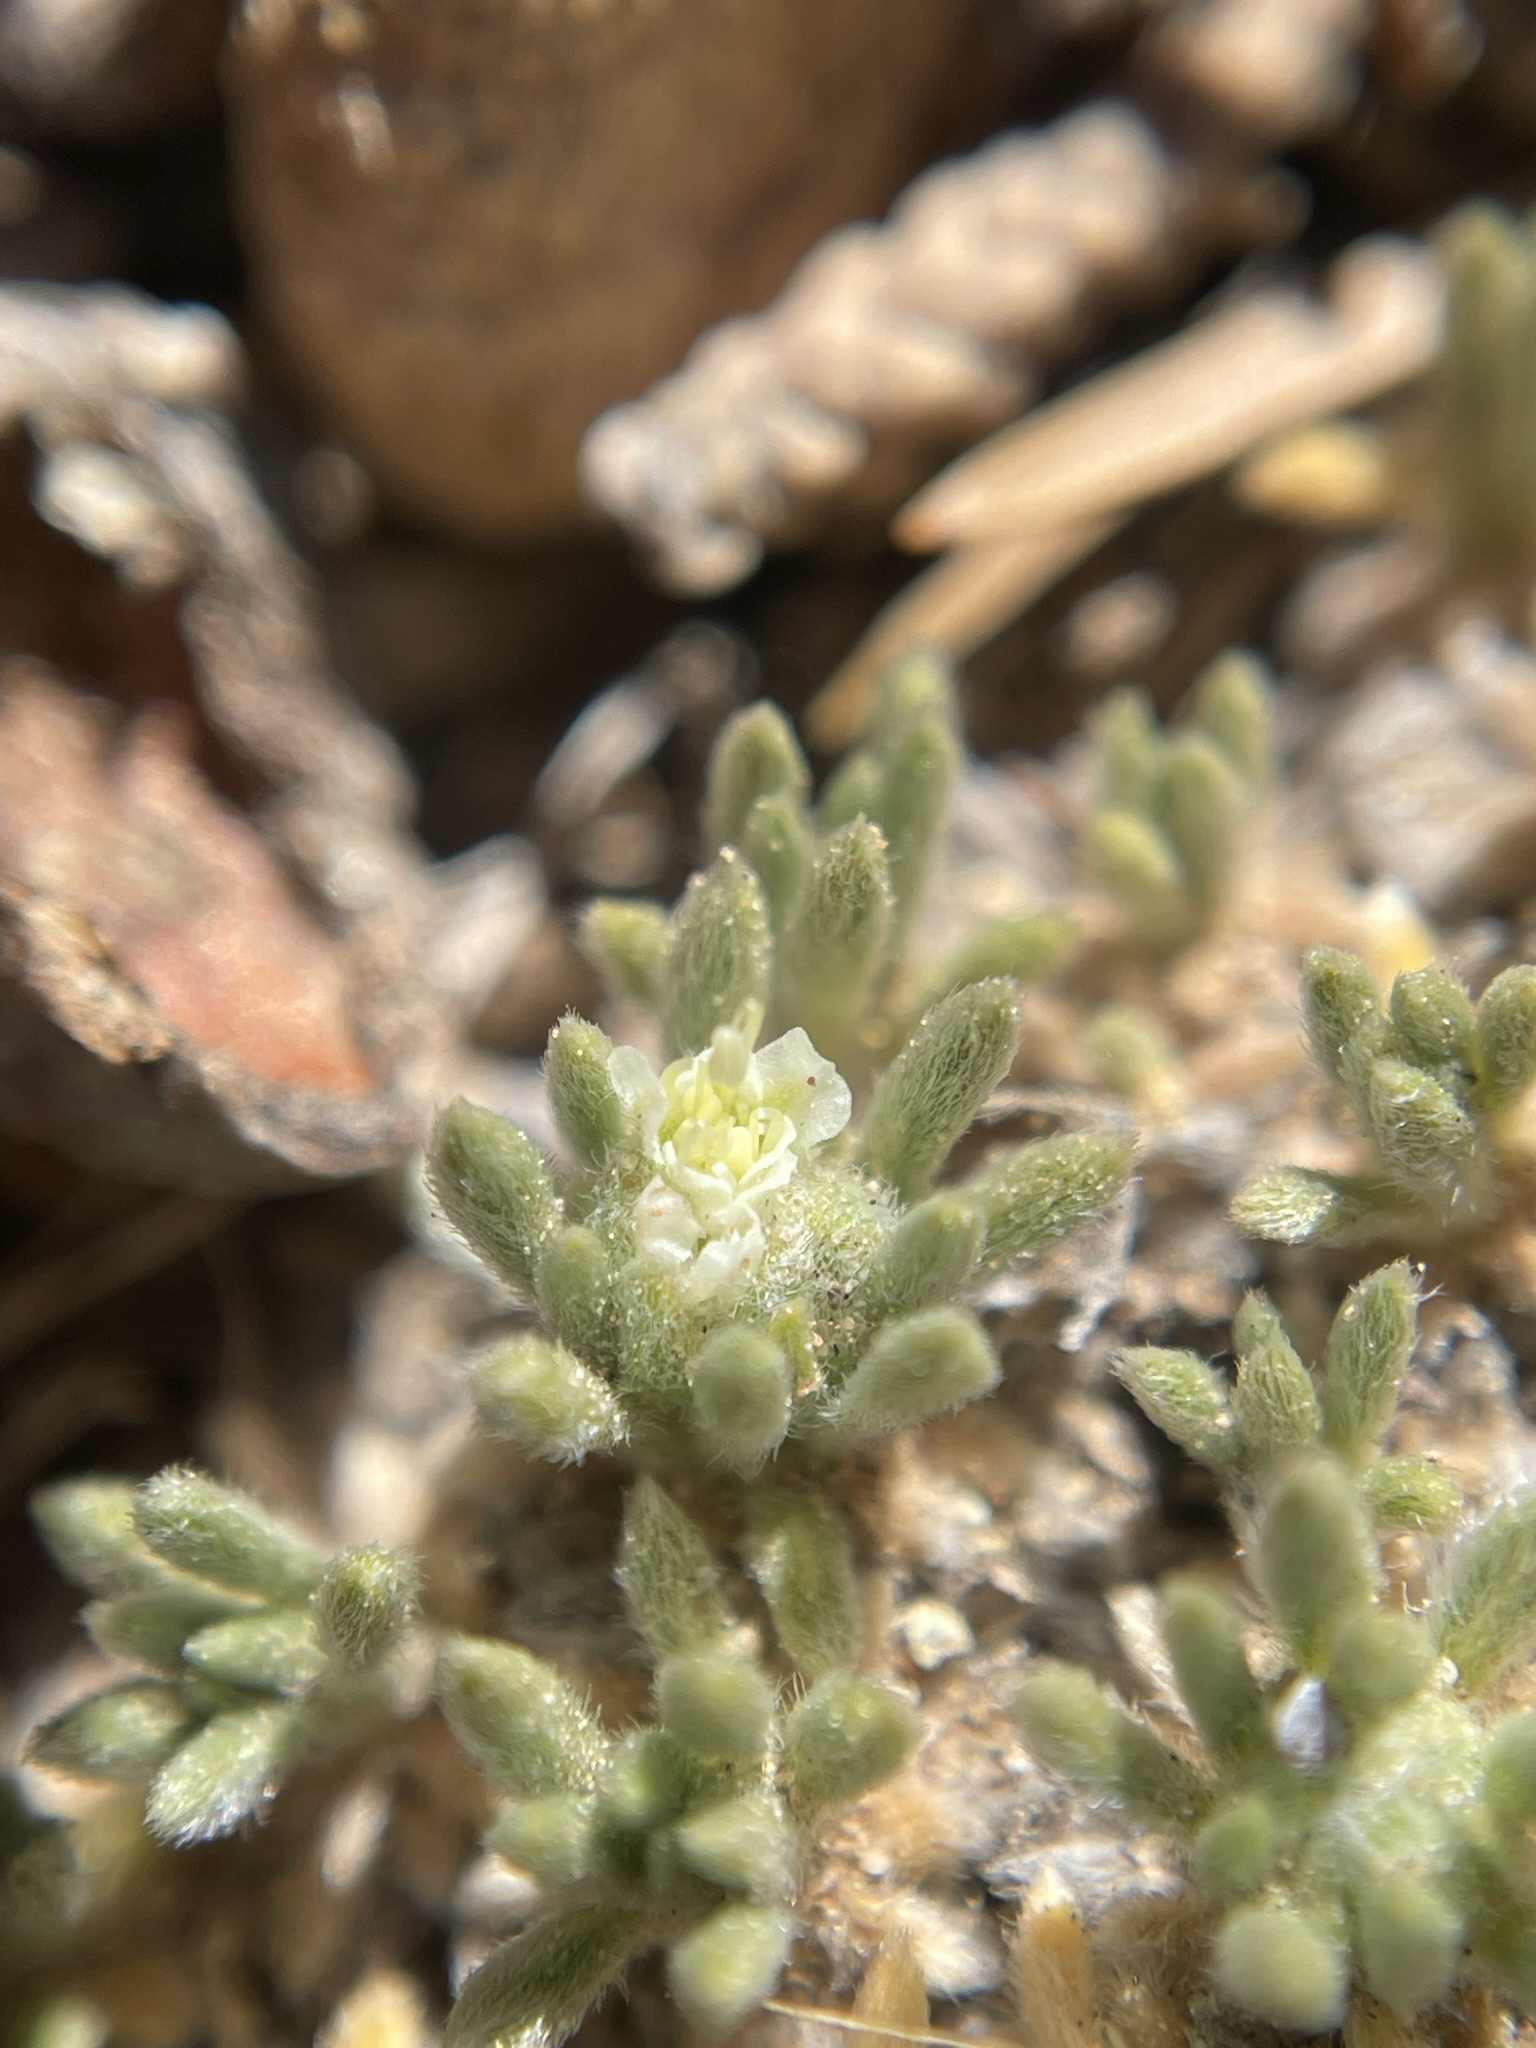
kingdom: Plantae
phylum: Tracheophyta
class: Magnoliopsida
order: Caryophyllales
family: Polygonaceae
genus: Eriogonum
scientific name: Eriogonum tumulosum
